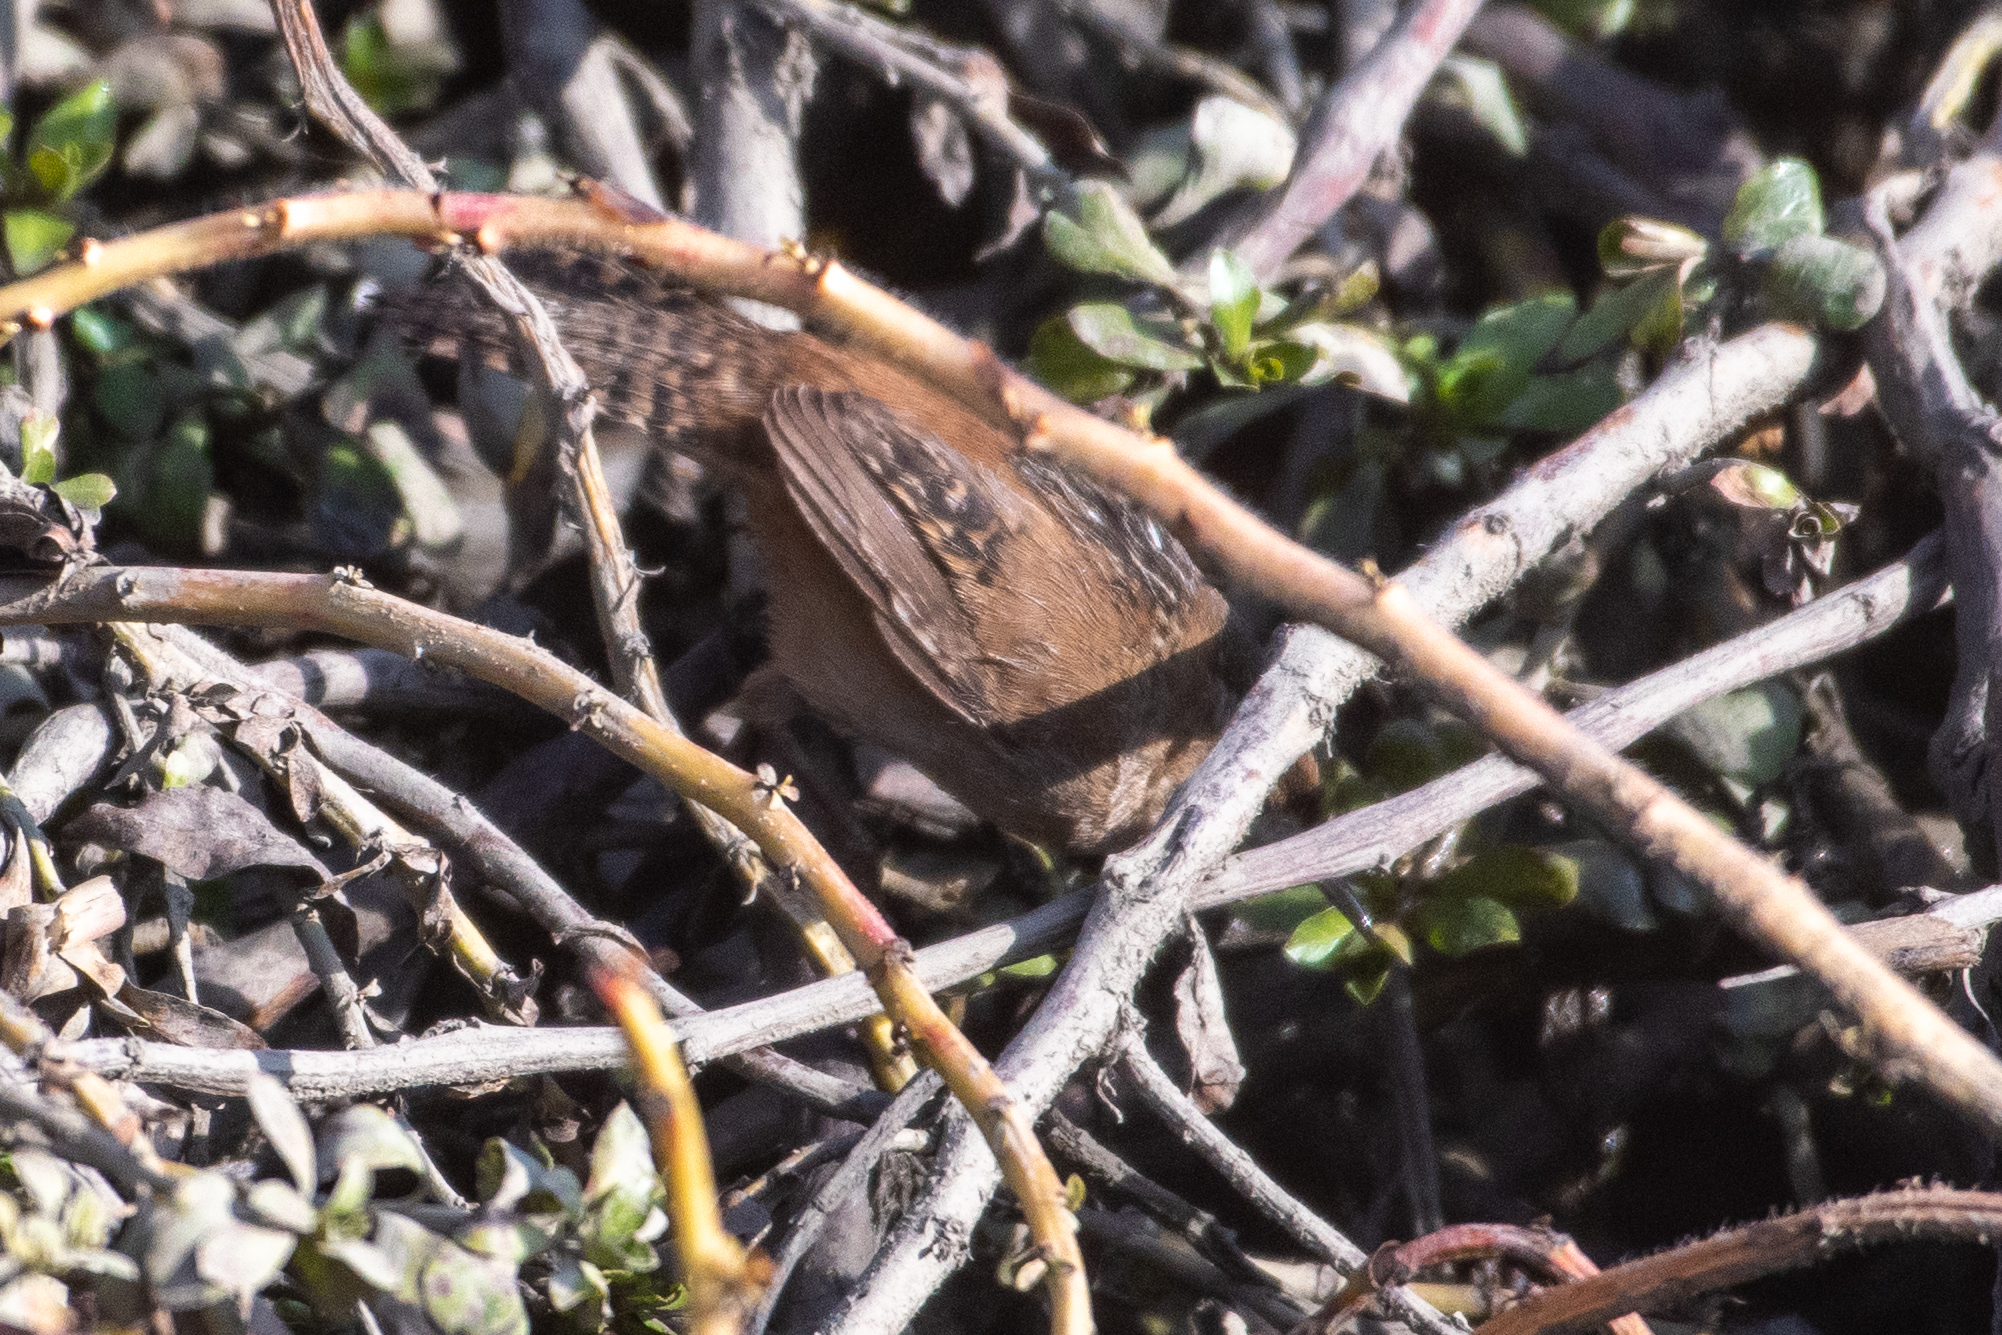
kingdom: Animalia
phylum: Chordata
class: Aves
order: Passeriformes
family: Troglodytidae
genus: Cistothorus
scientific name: Cistothorus palustris
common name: Marsh wren
